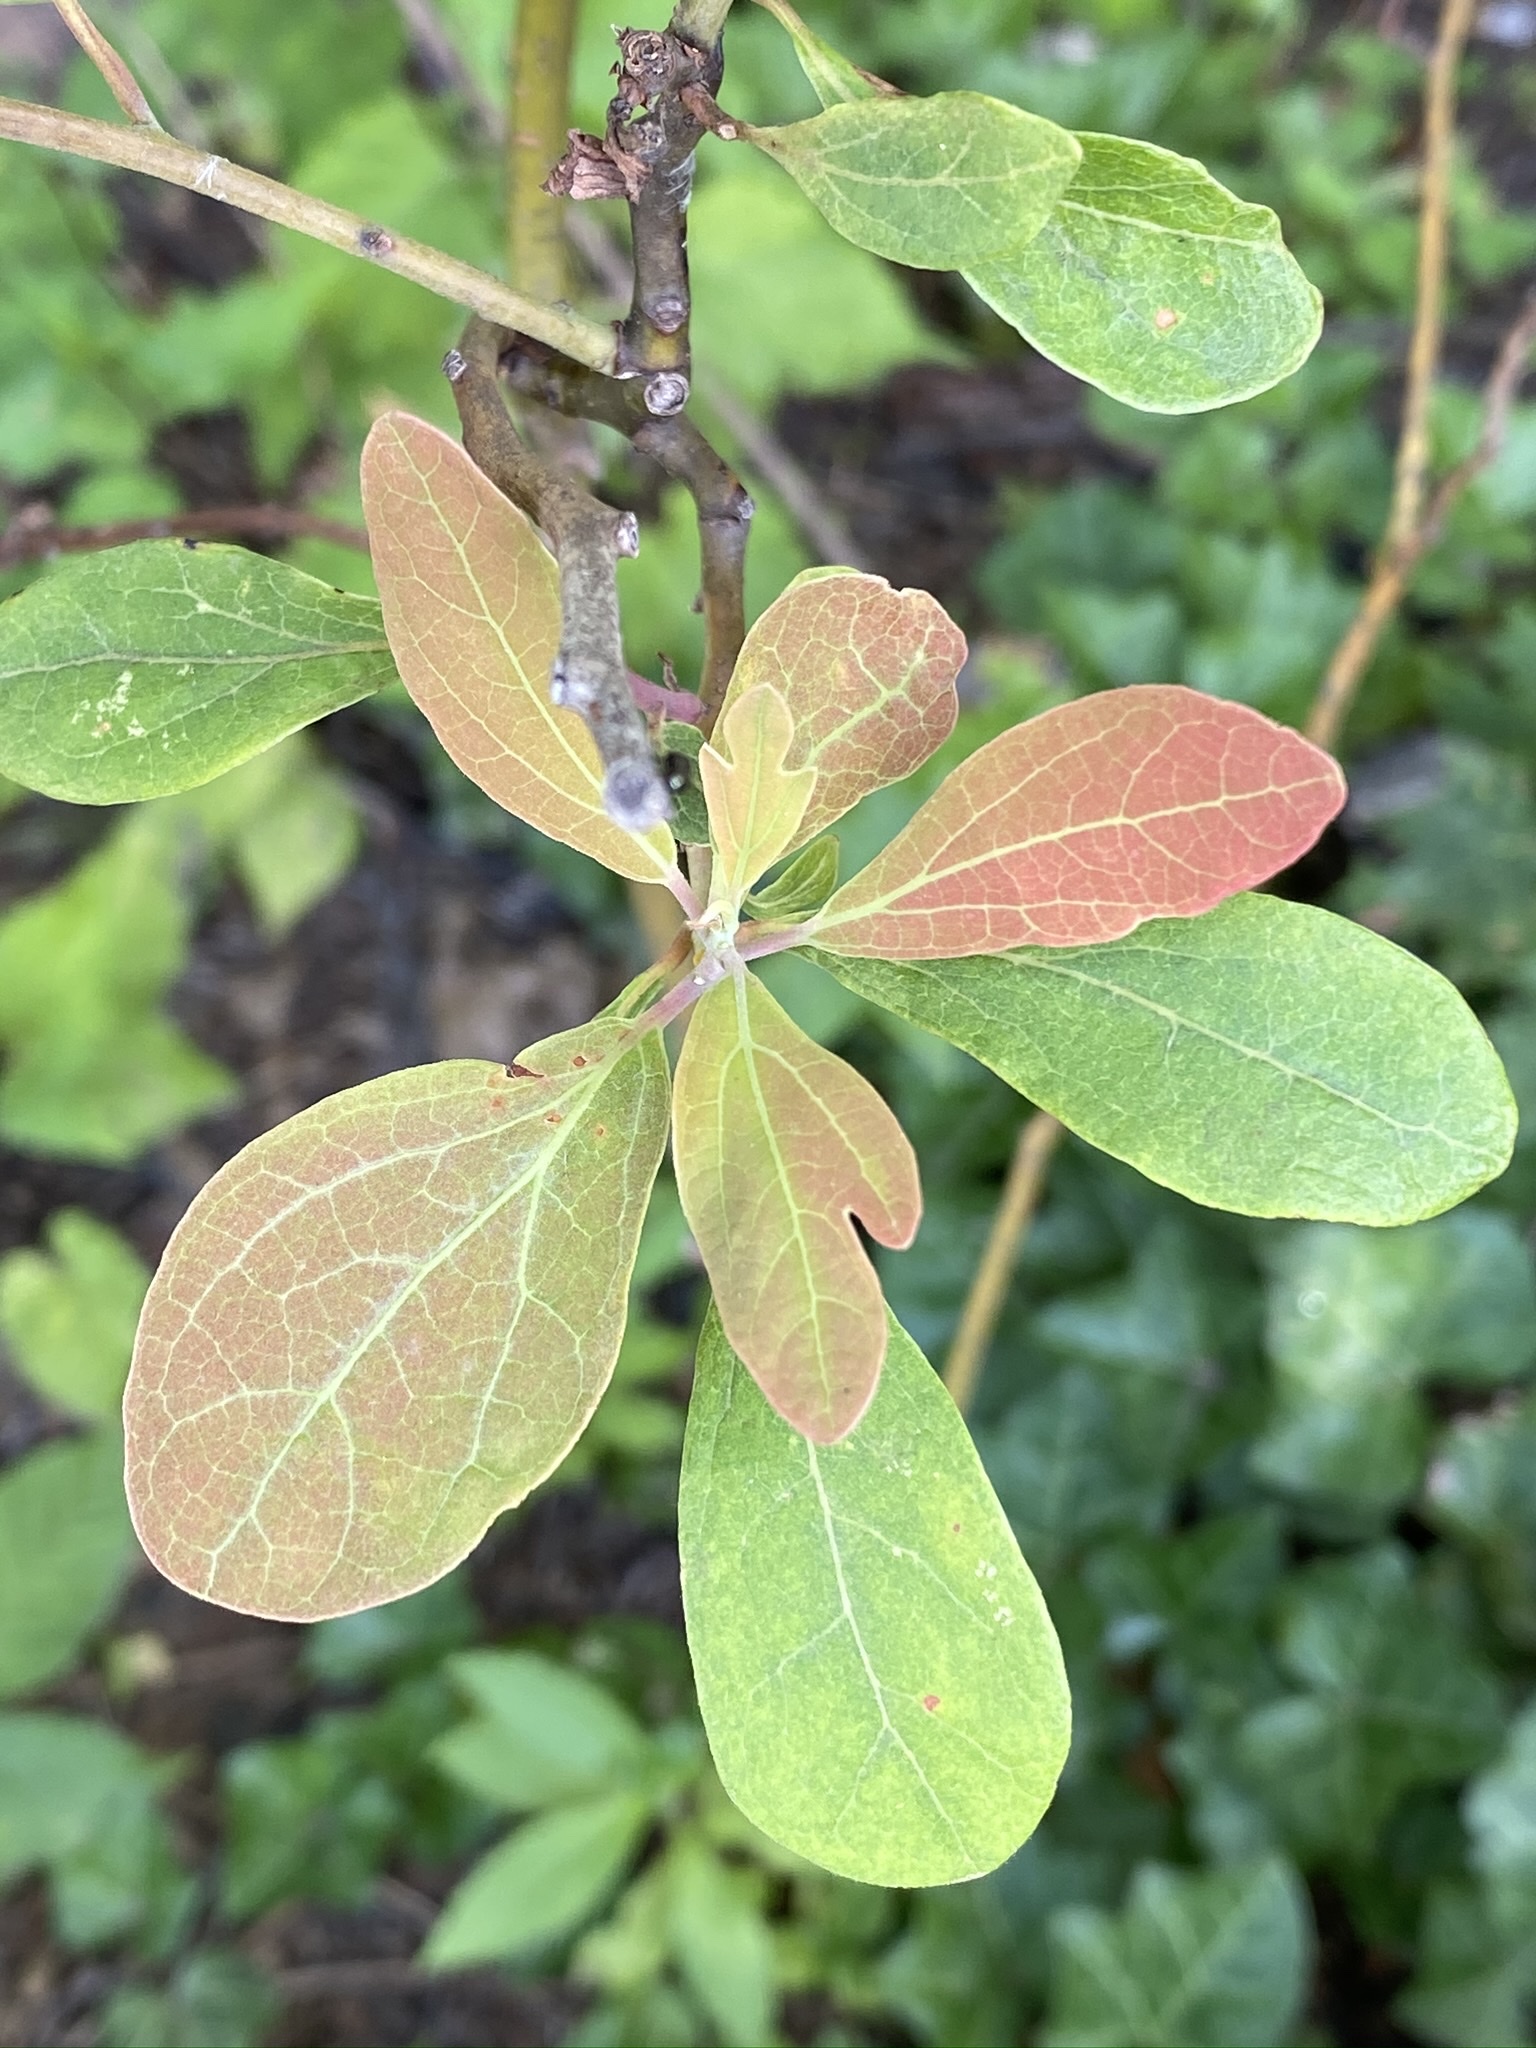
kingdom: Plantae
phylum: Tracheophyta
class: Magnoliopsida
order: Laurales
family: Lauraceae
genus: Sassafras
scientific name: Sassafras albidum
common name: Sassafras
